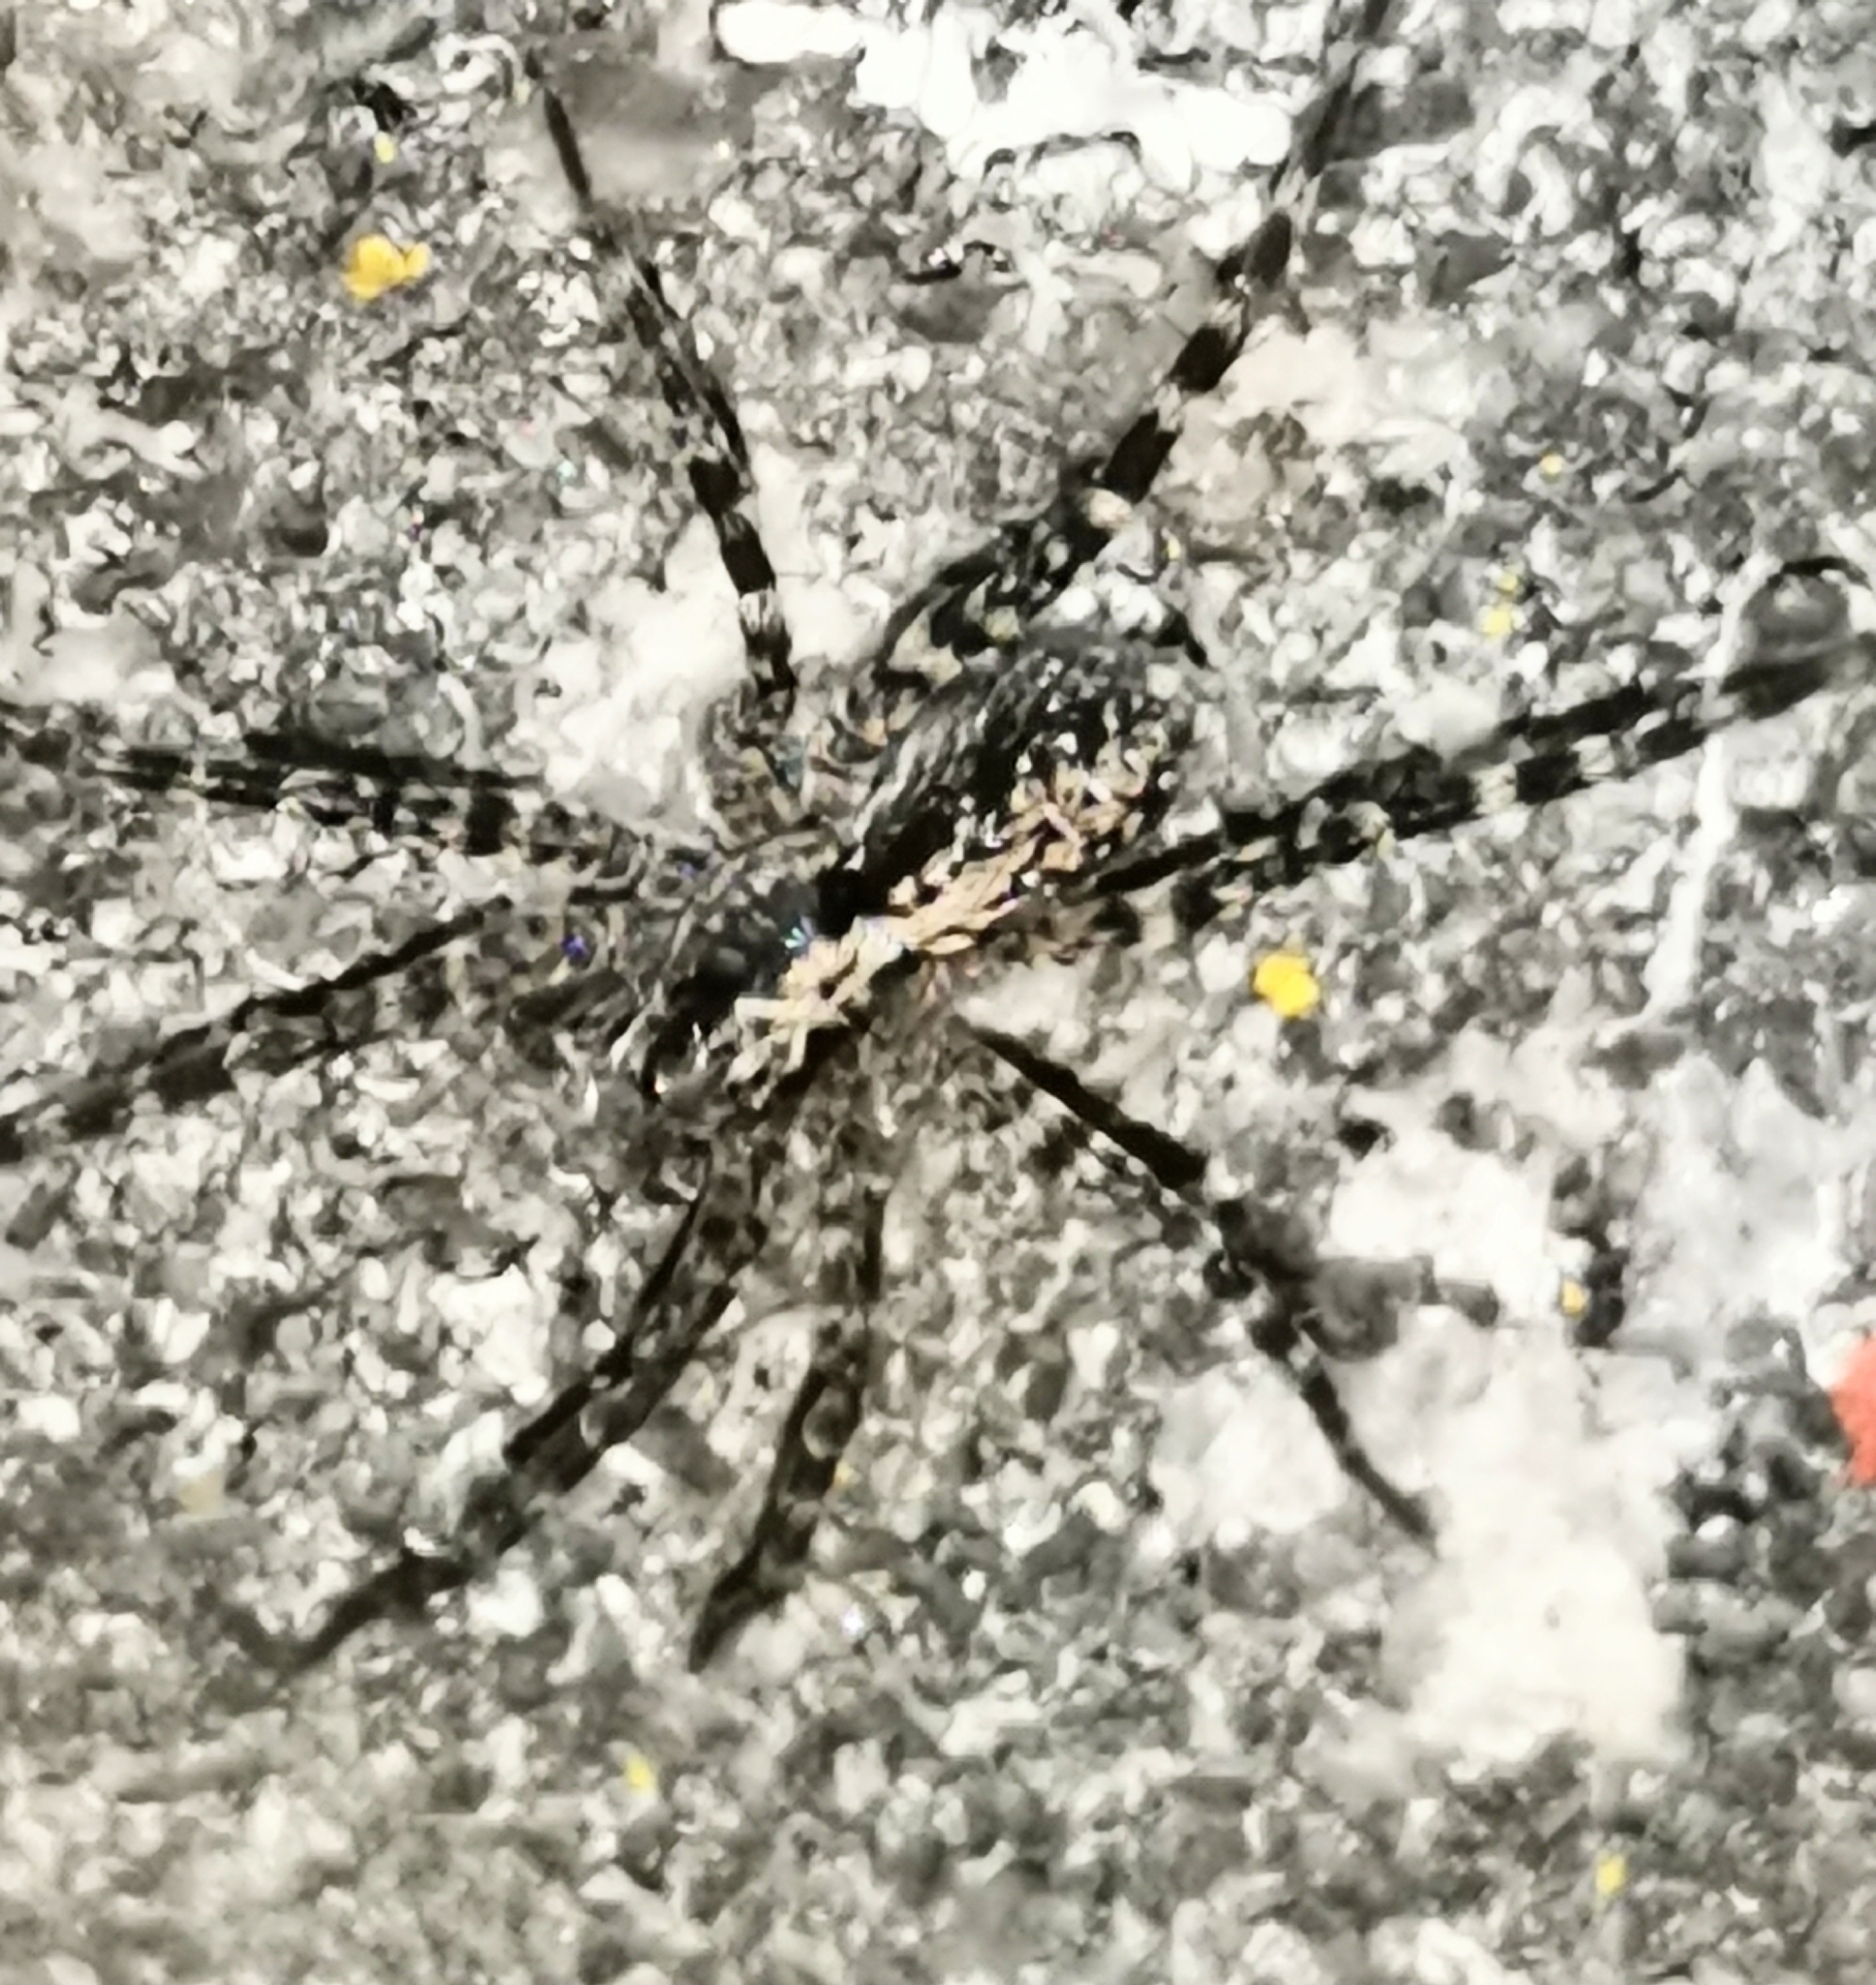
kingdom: Animalia
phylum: Arthropoda
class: Arachnida
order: Araneae
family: Lycosidae
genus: Acantholycosa
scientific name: Acantholycosa lignaria
